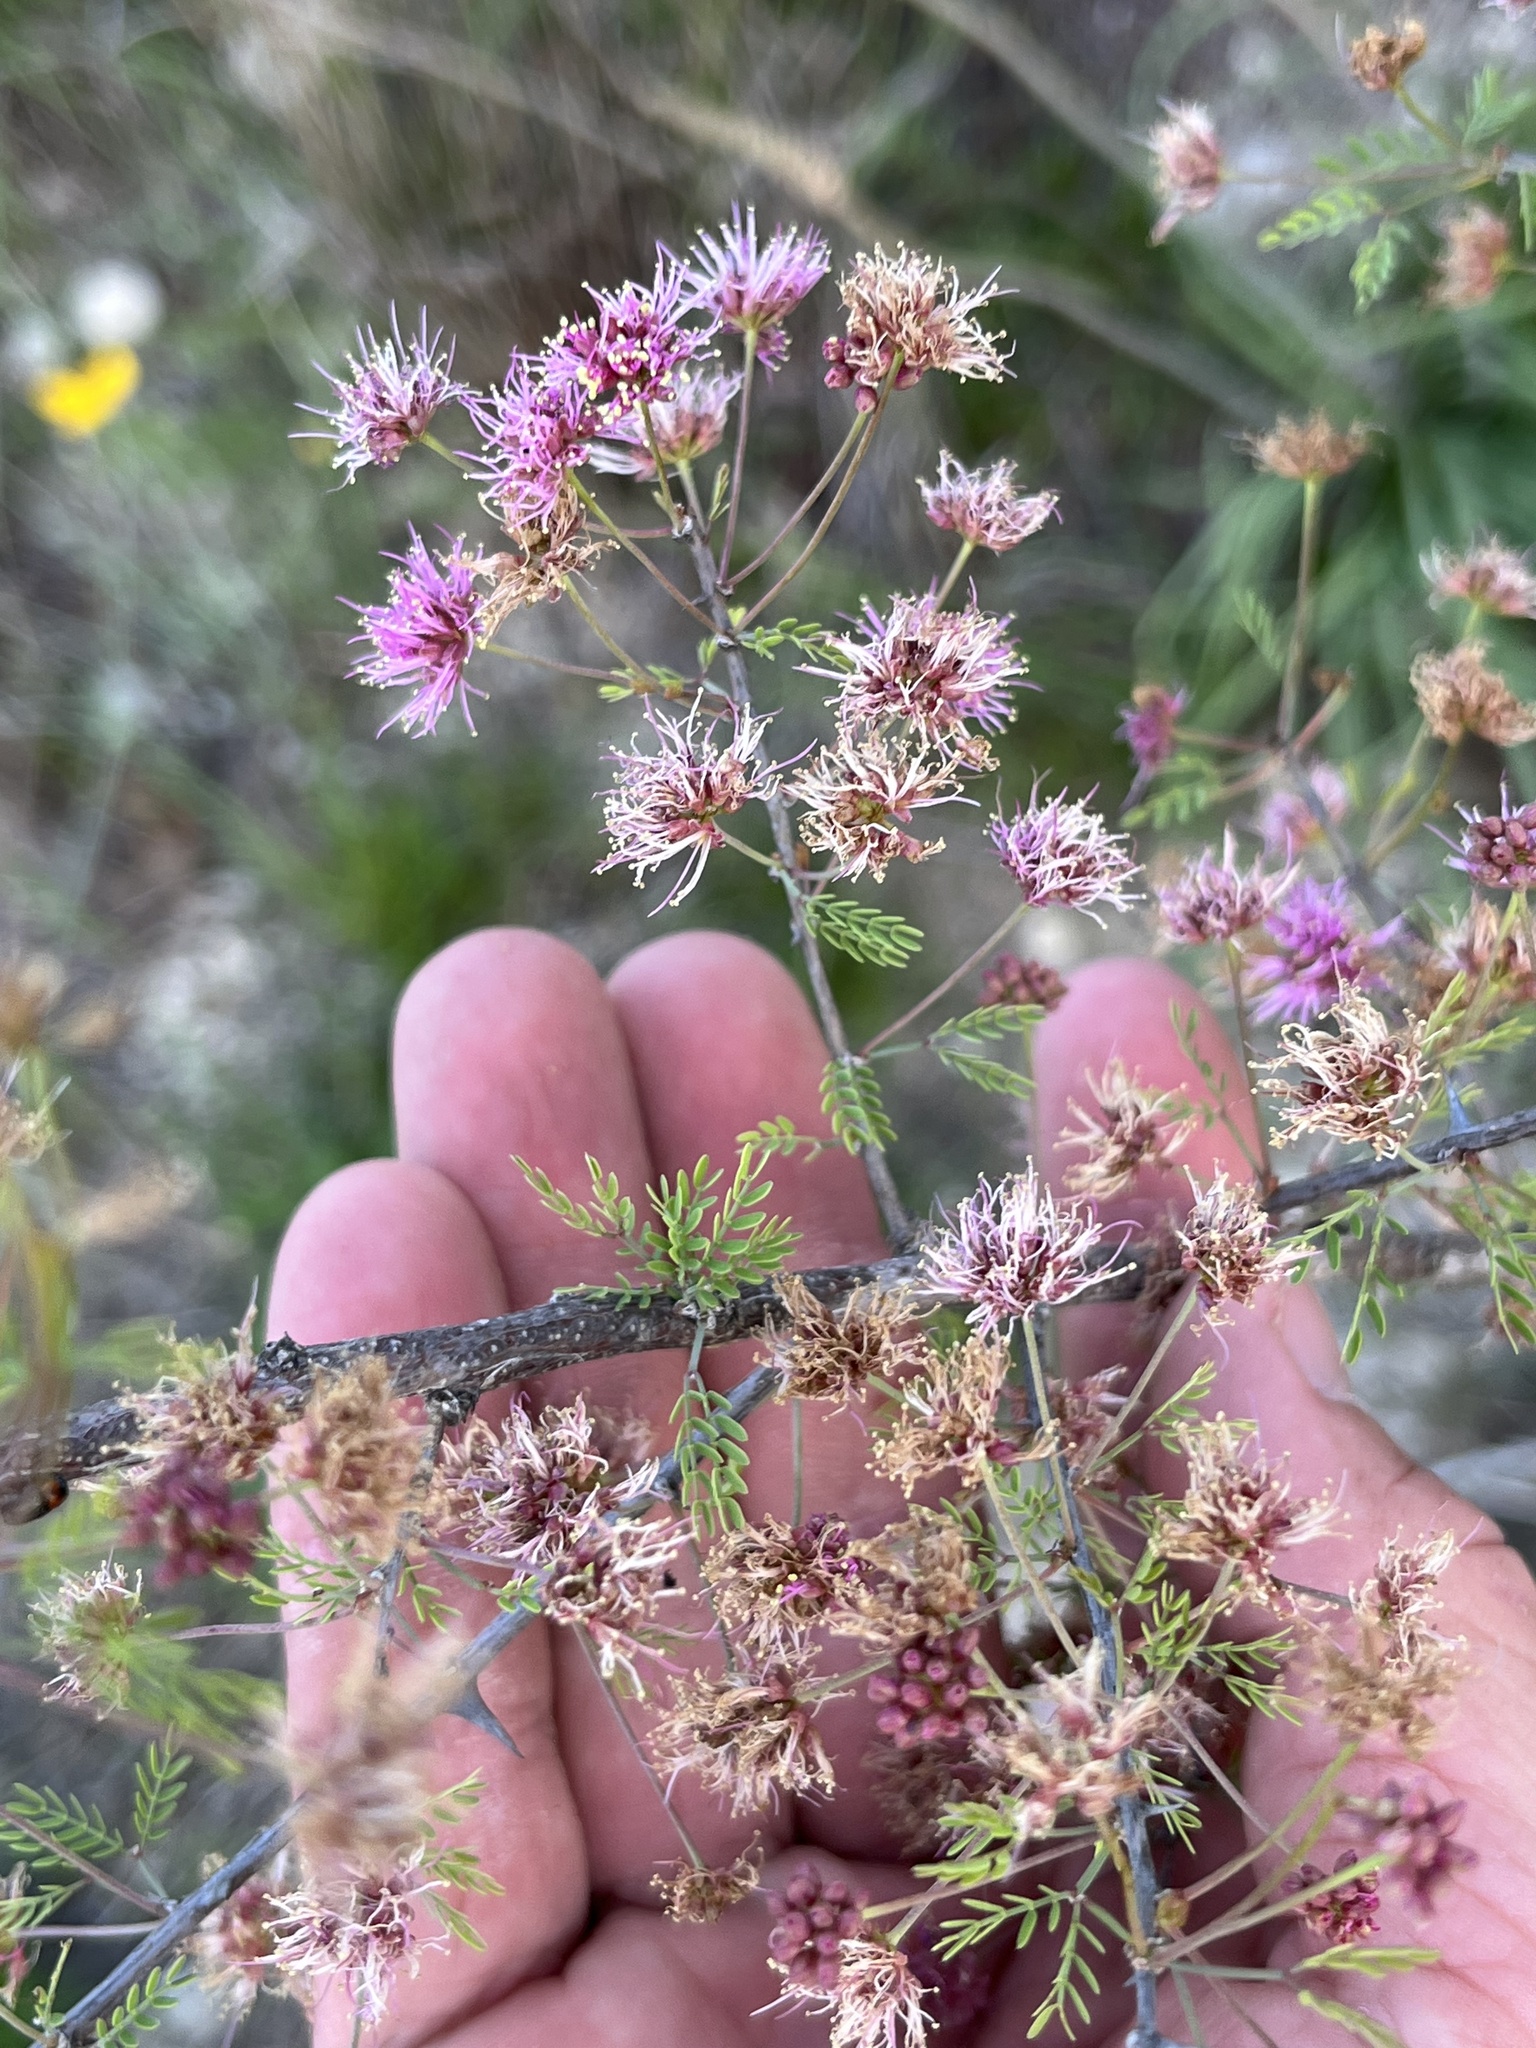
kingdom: Plantae
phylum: Tracheophyta
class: Magnoliopsida
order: Fabales
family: Fabaceae
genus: Mimosa
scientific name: Mimosa borealis
